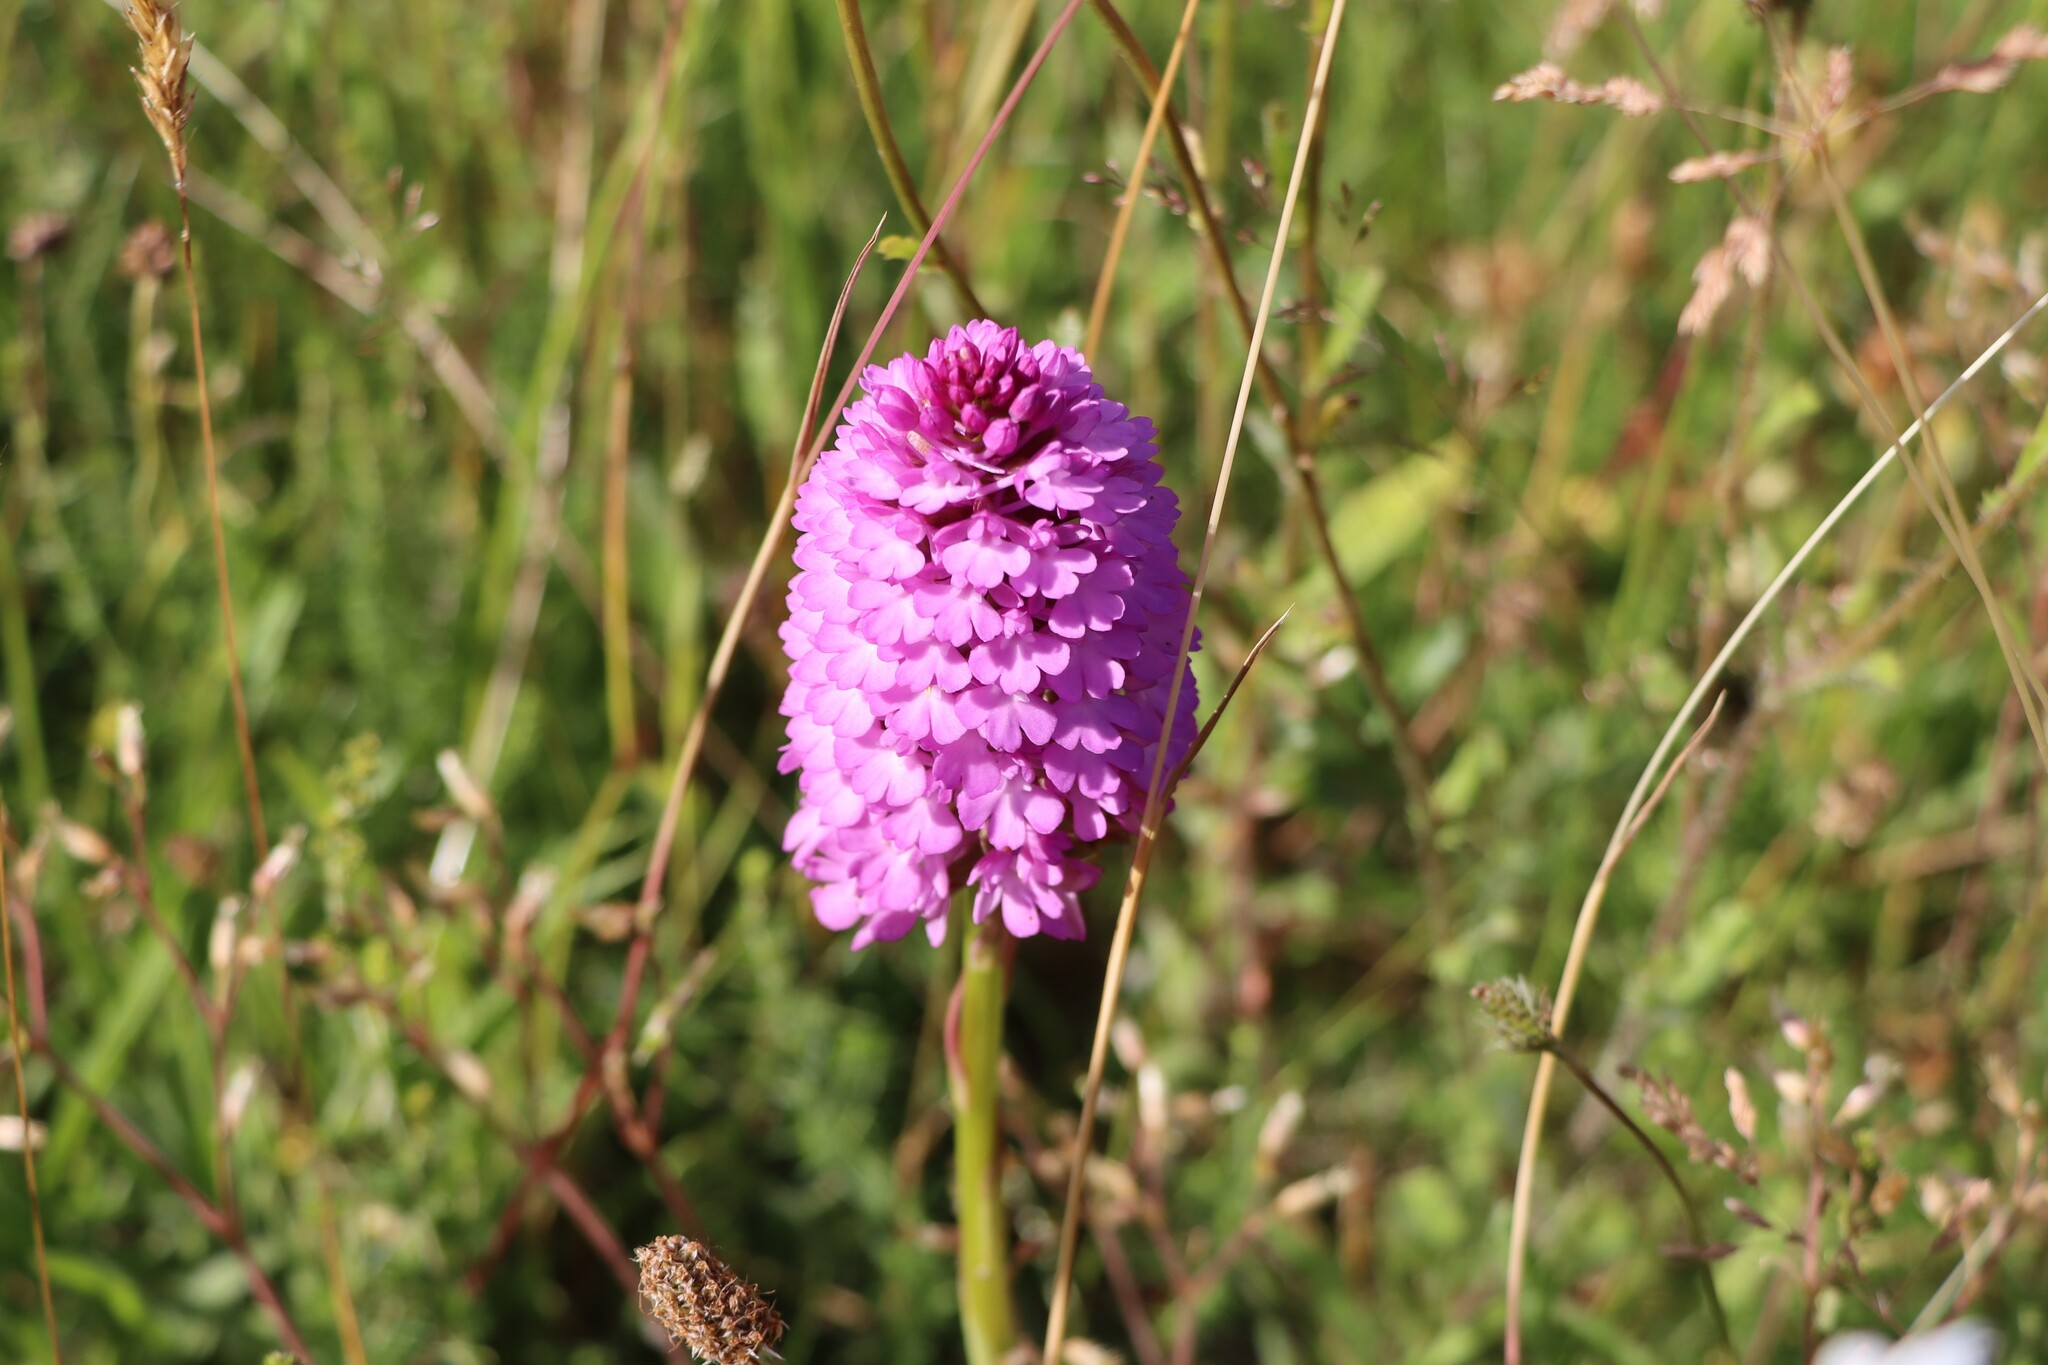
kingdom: Plantae
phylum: Tracheophyta
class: Liliopsida
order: Asparagales
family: Orchidaceae
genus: Anacamptis
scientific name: Anacamptis pyramidalis
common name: Pyramidal orchid
